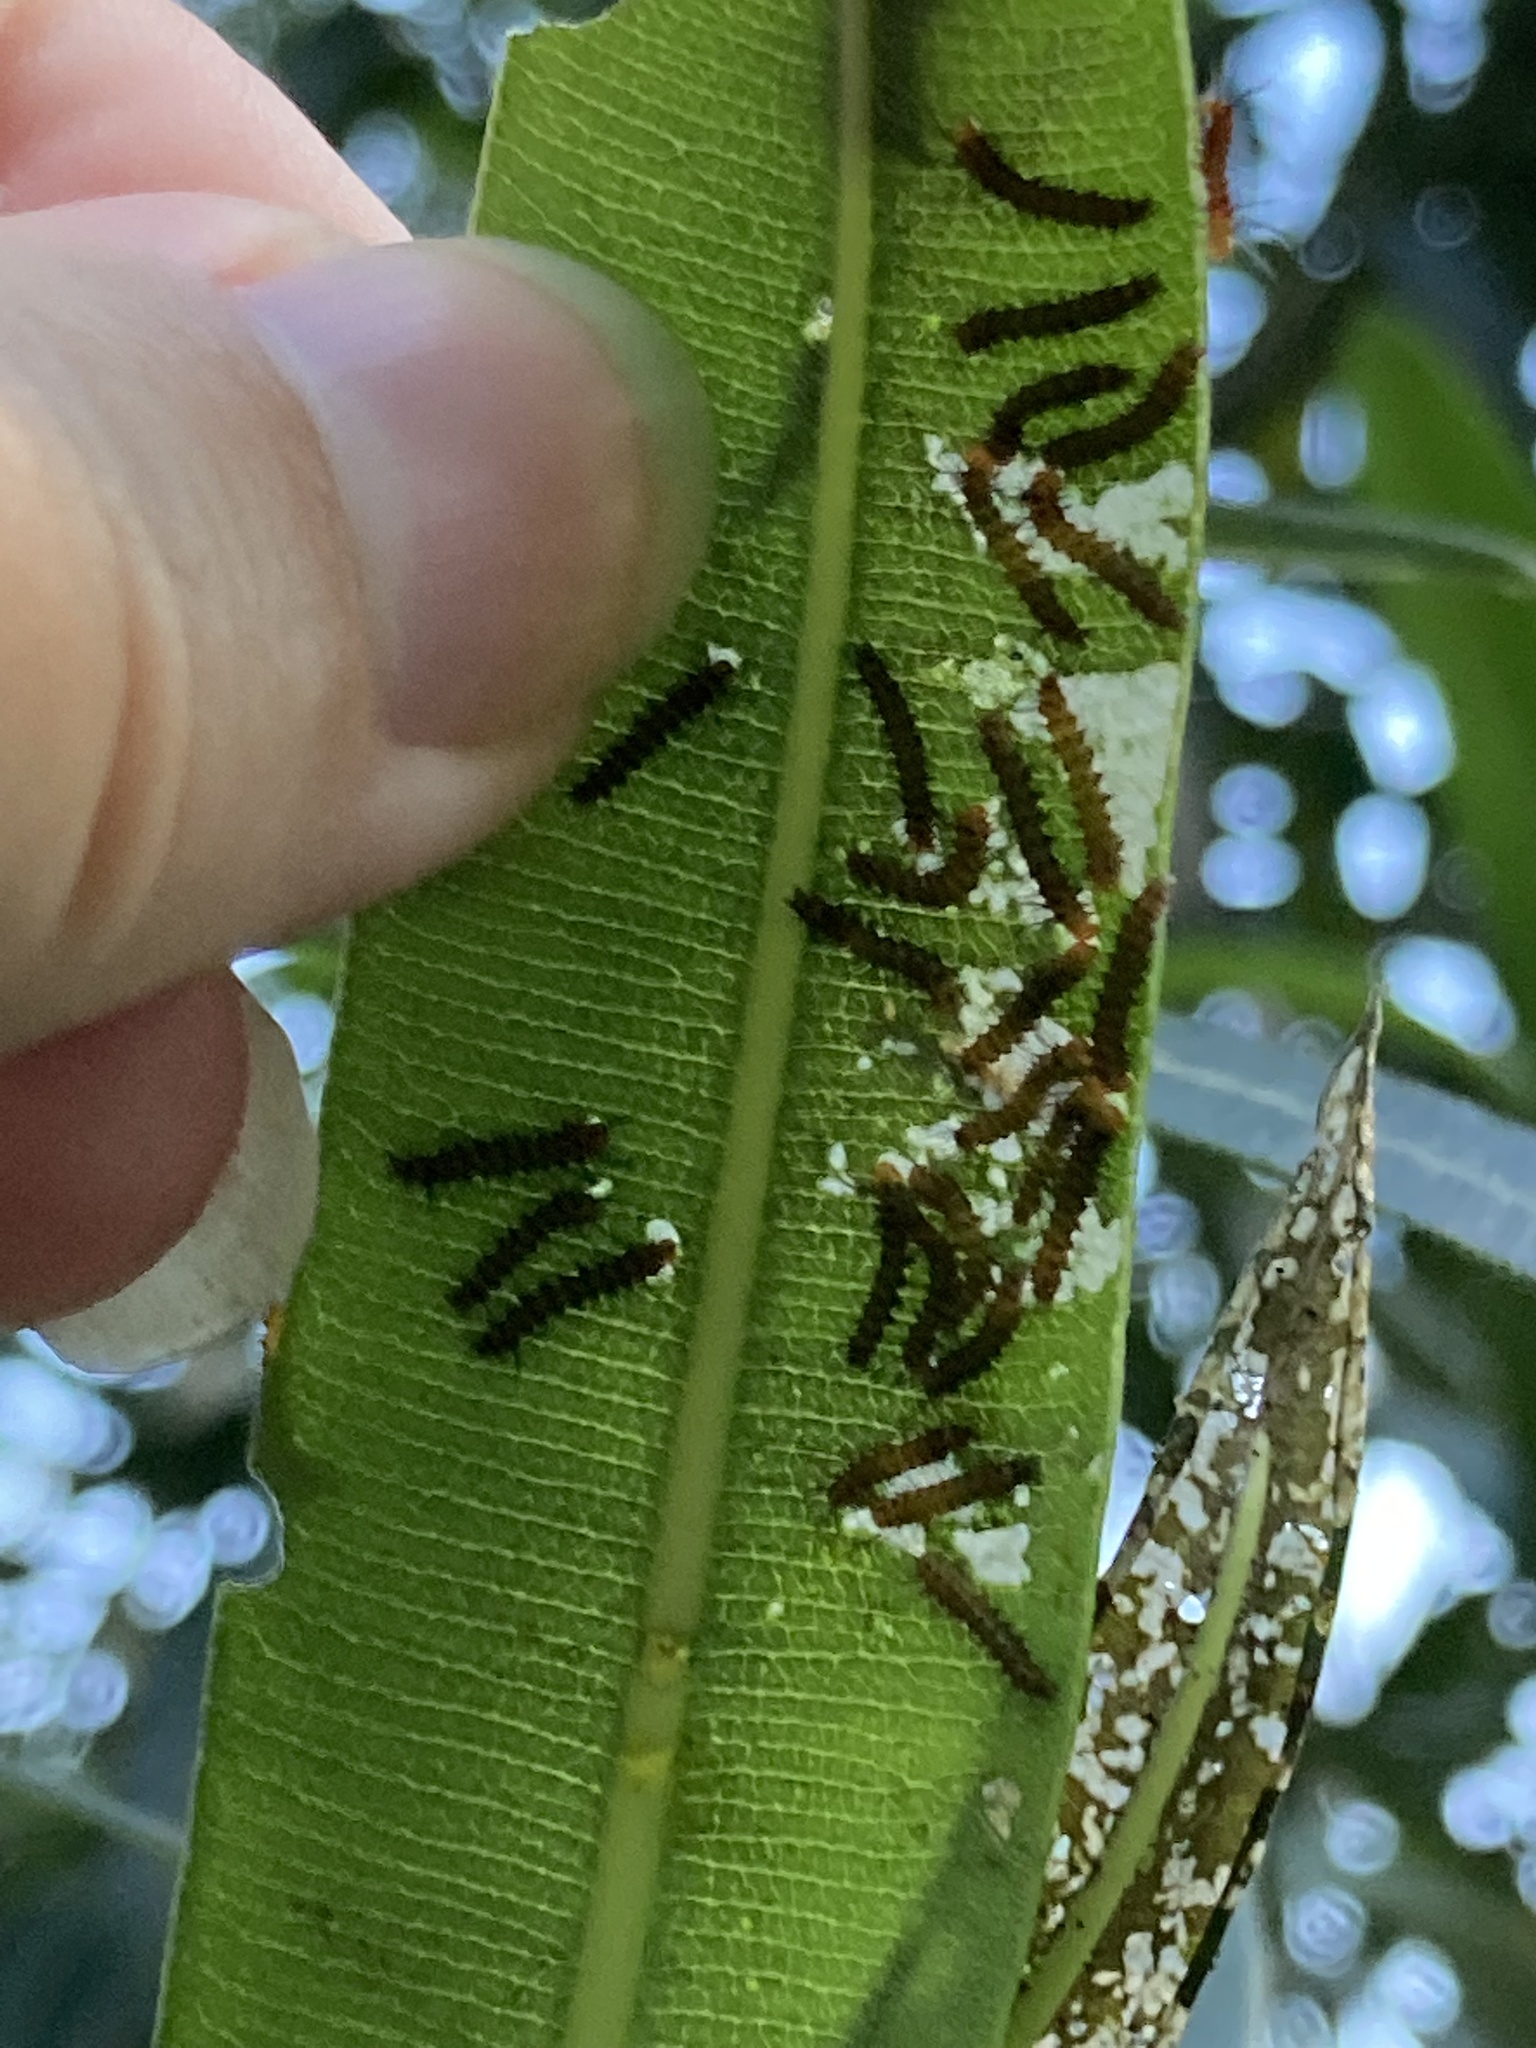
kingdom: Animalia
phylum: Arthropoda
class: Insecta
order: Lepidoptera
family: Erebidae
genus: Syntomeida
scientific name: Syntomeida epilais
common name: Polka-dot wasp moth
